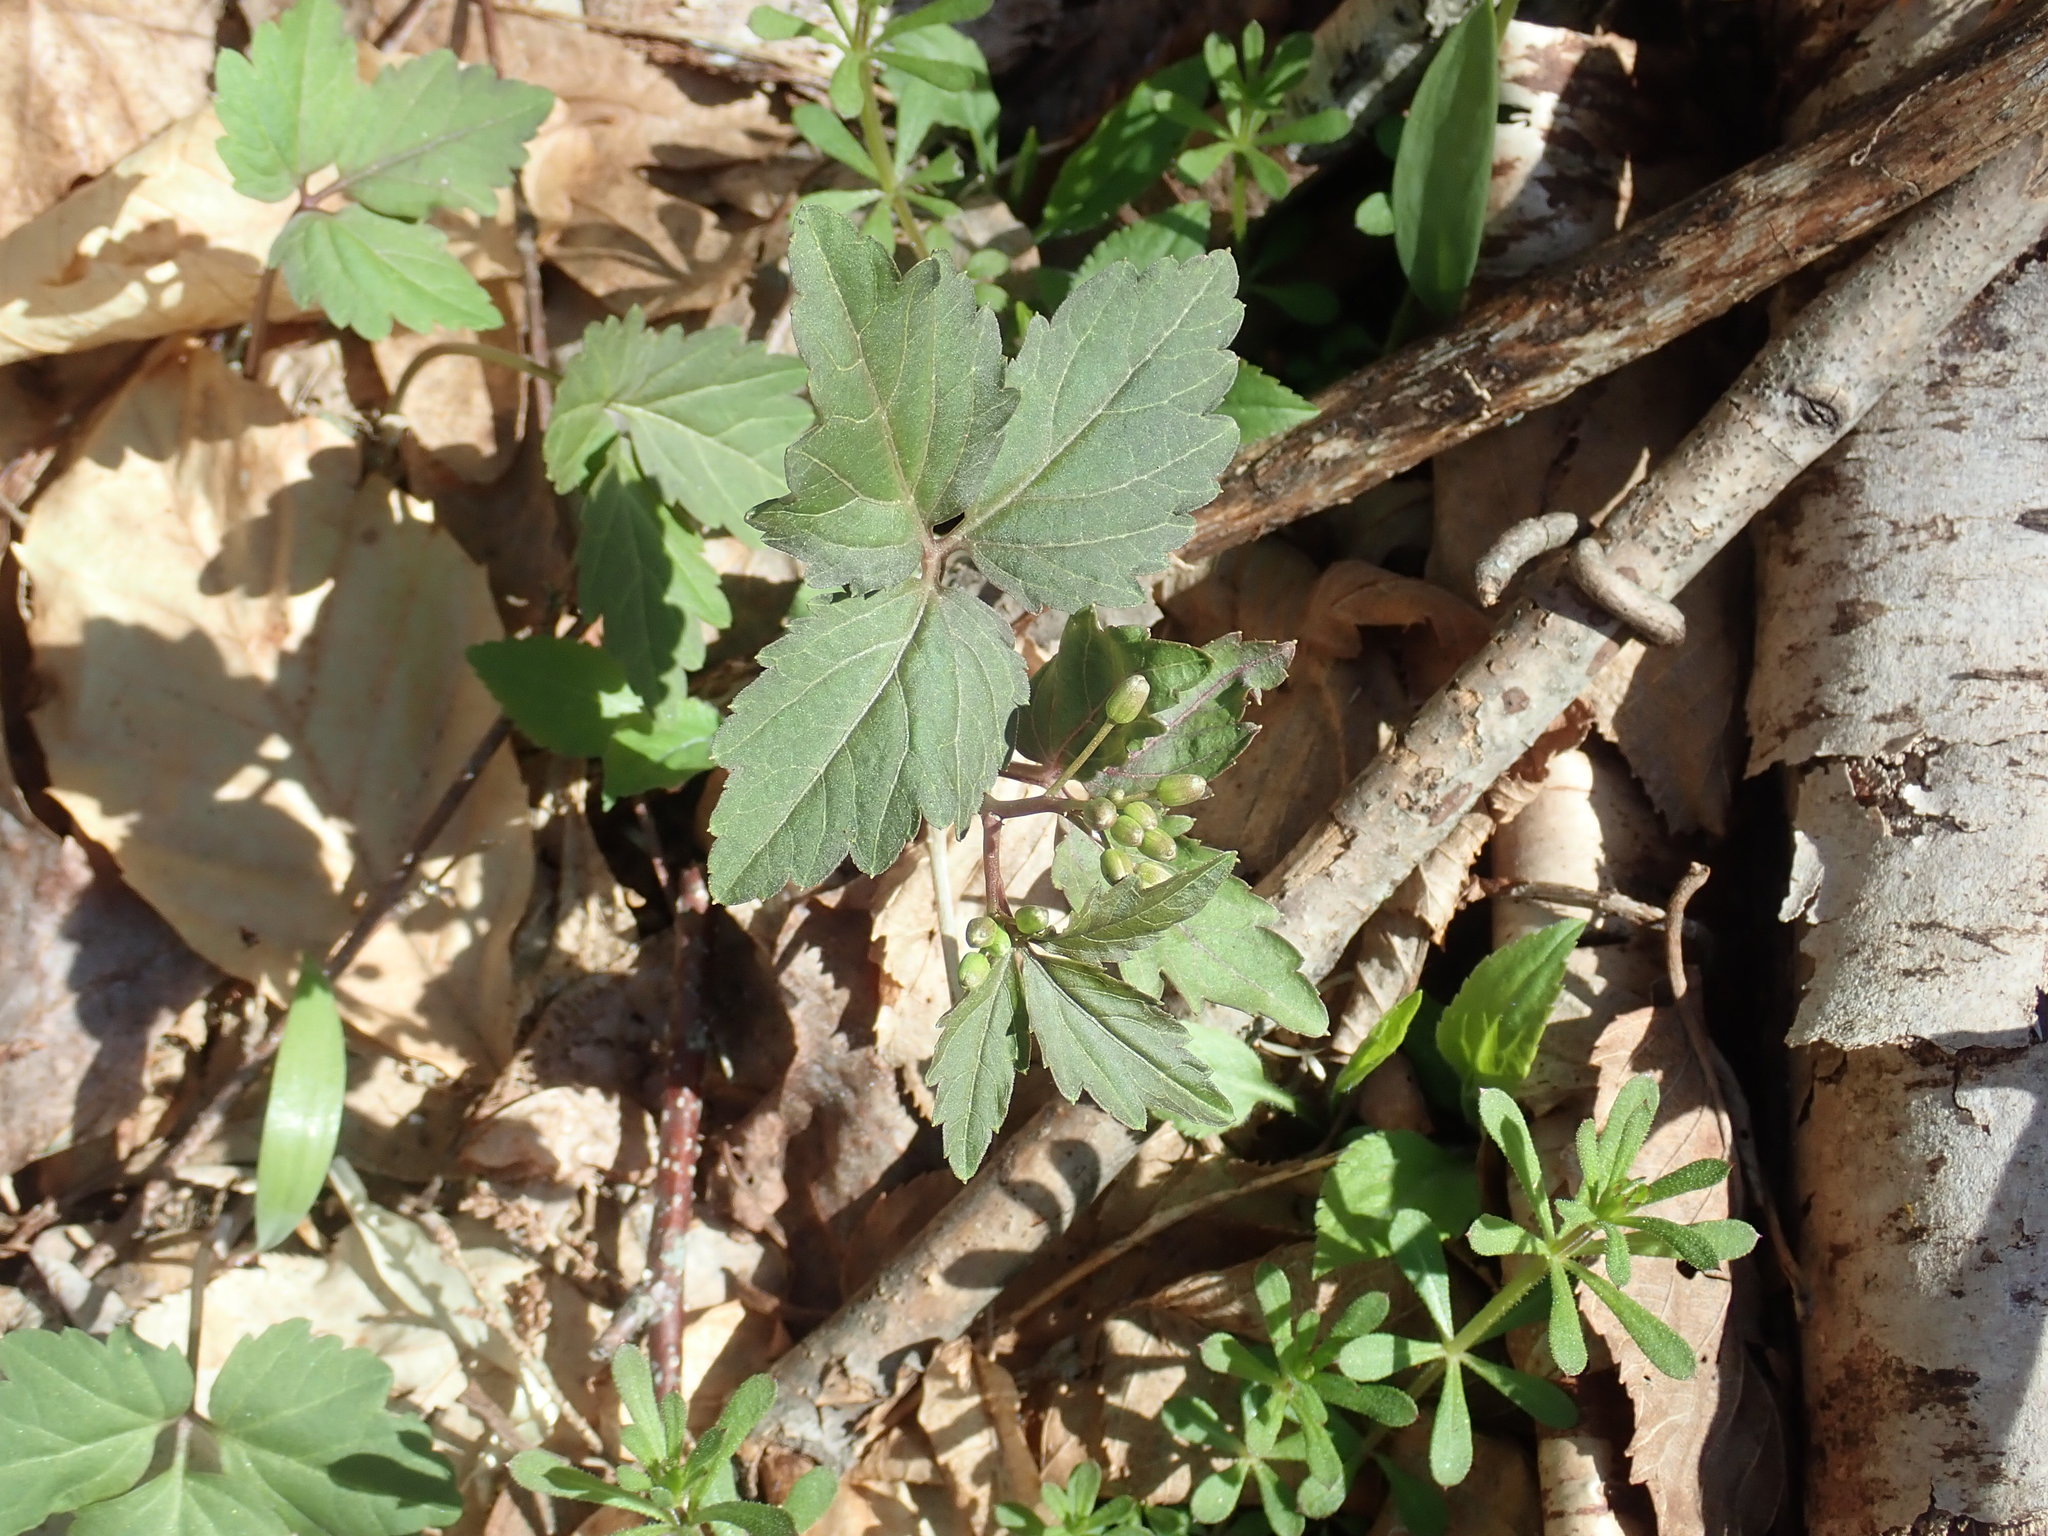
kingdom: Plantae
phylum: Tracheophyta
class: Magnoliopsida
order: Brassicales
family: Brassicaceae
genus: Cardamine
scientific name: Cardamine diphylla
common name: Broad-leaved toothwort
